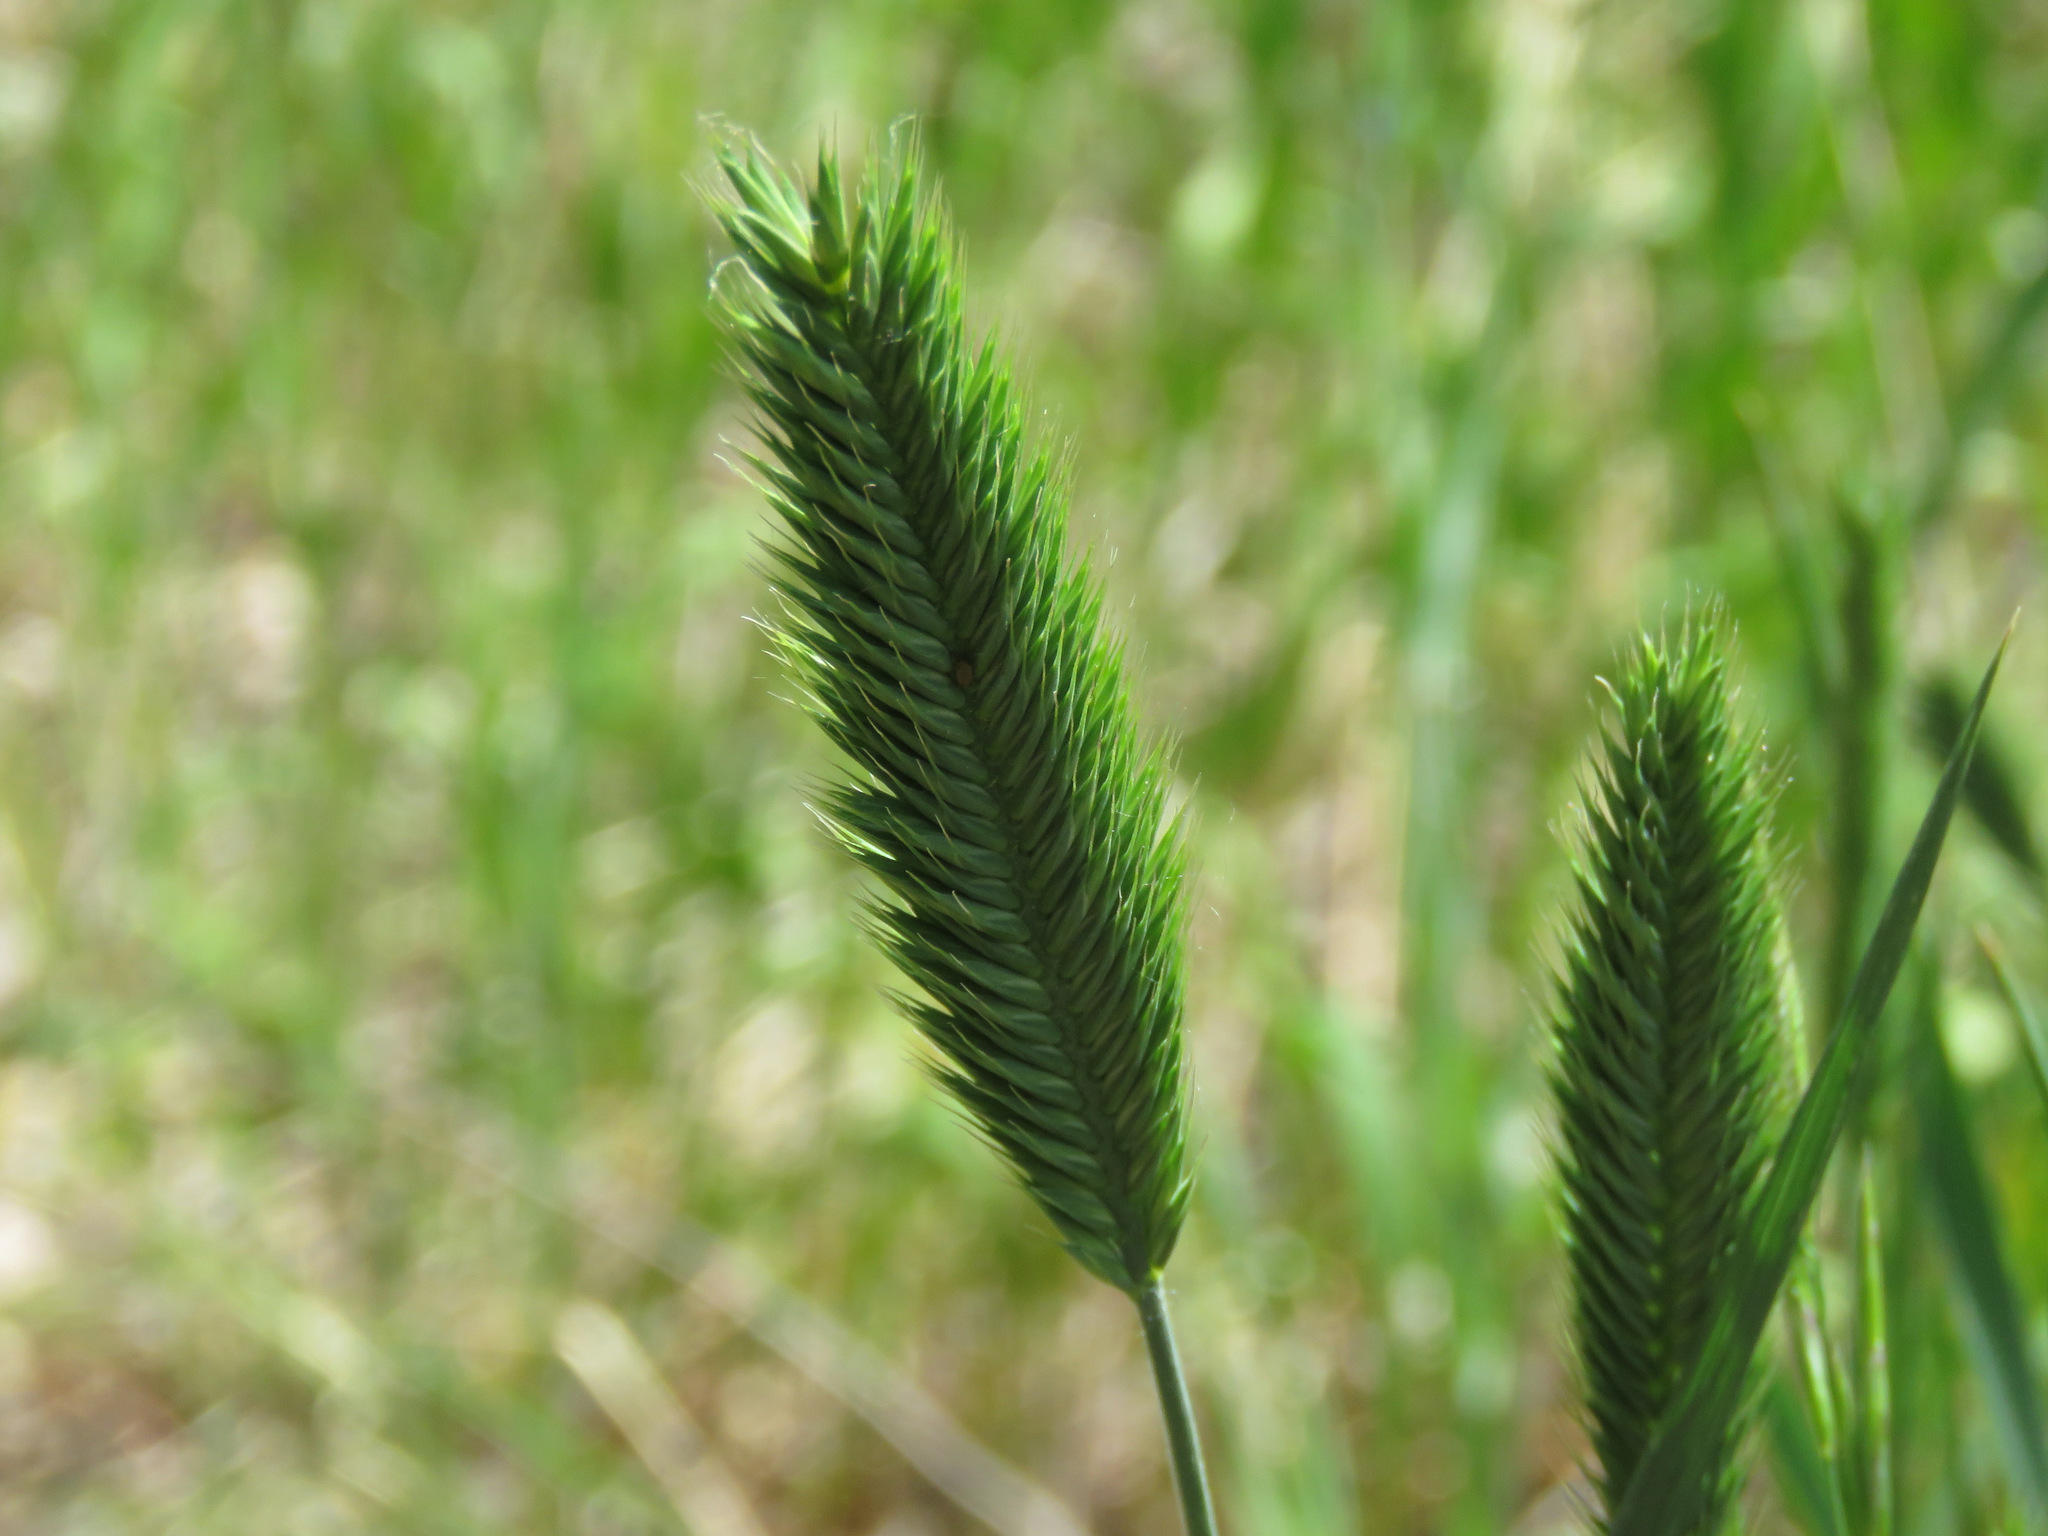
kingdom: Plantae
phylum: Tracheophyta
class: Liliopsida
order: Poales
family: Poaceae
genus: Agropyron
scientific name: Agropyron cristatum
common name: Crested wheatgrass
